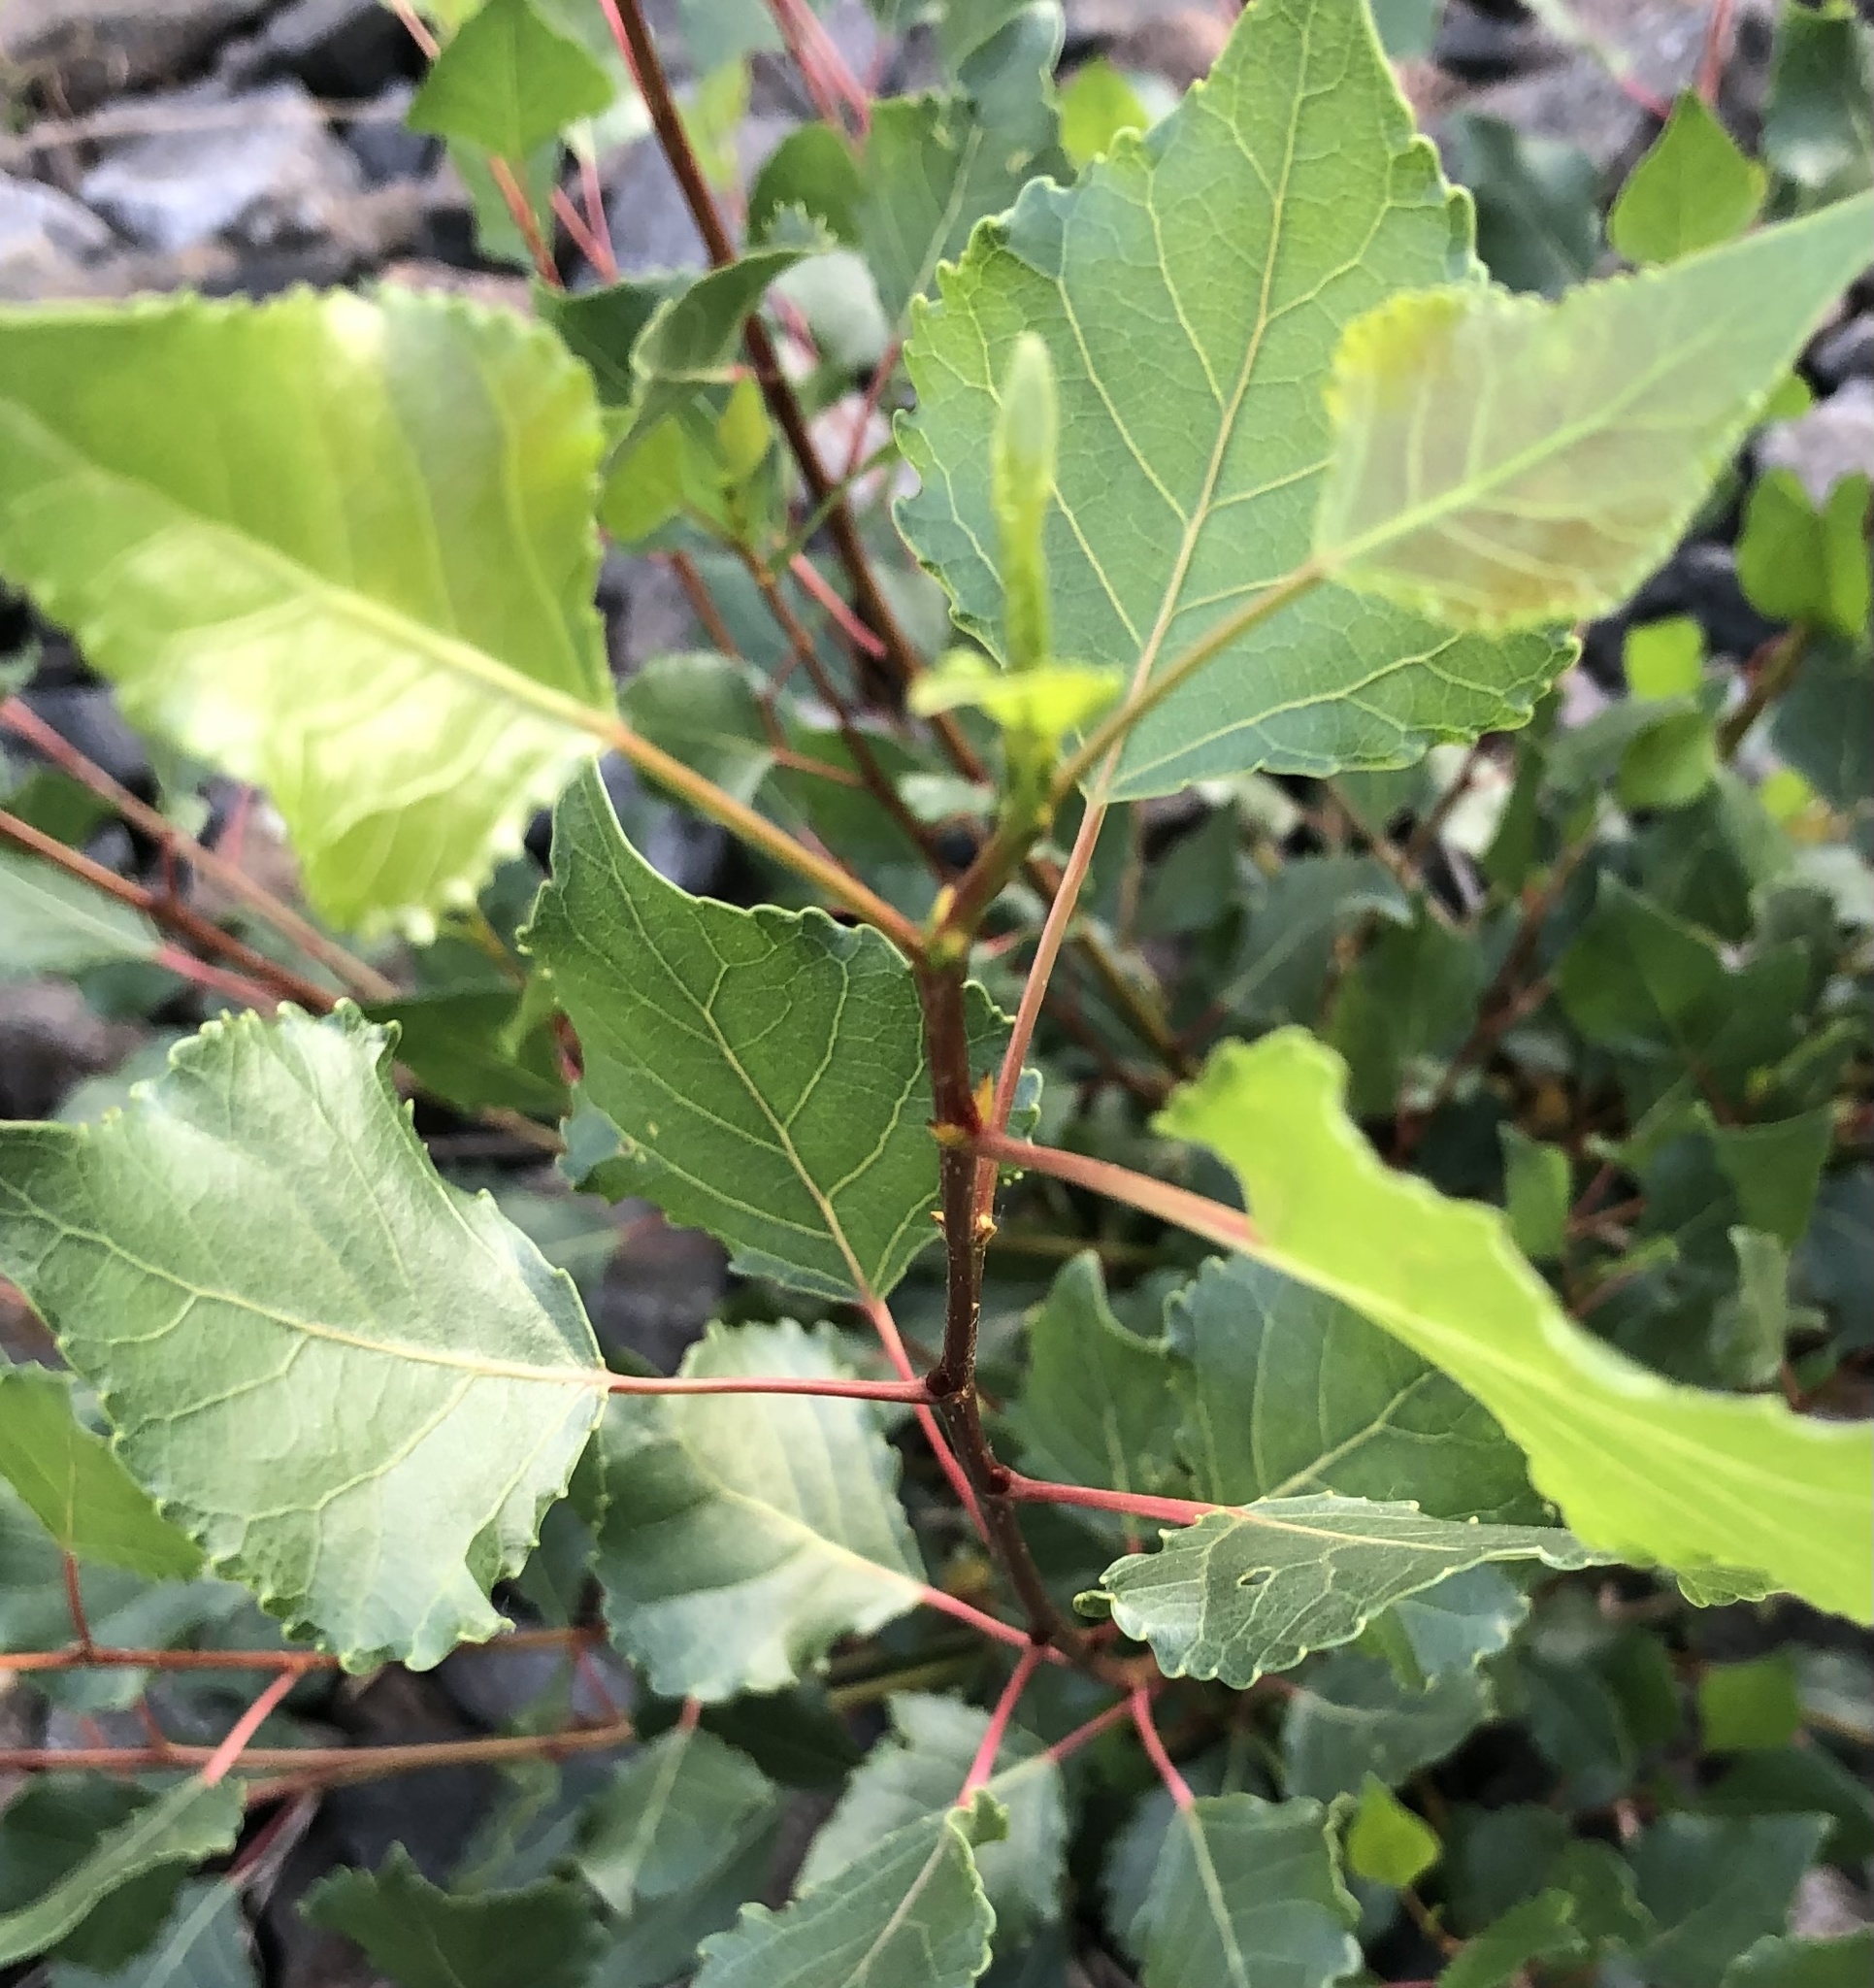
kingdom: Plantae
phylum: Tracheophyta
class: Magnoliopsida
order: Malpighiales
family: Salicaceae
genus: Populus
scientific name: Populus nigra
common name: Black poplar
